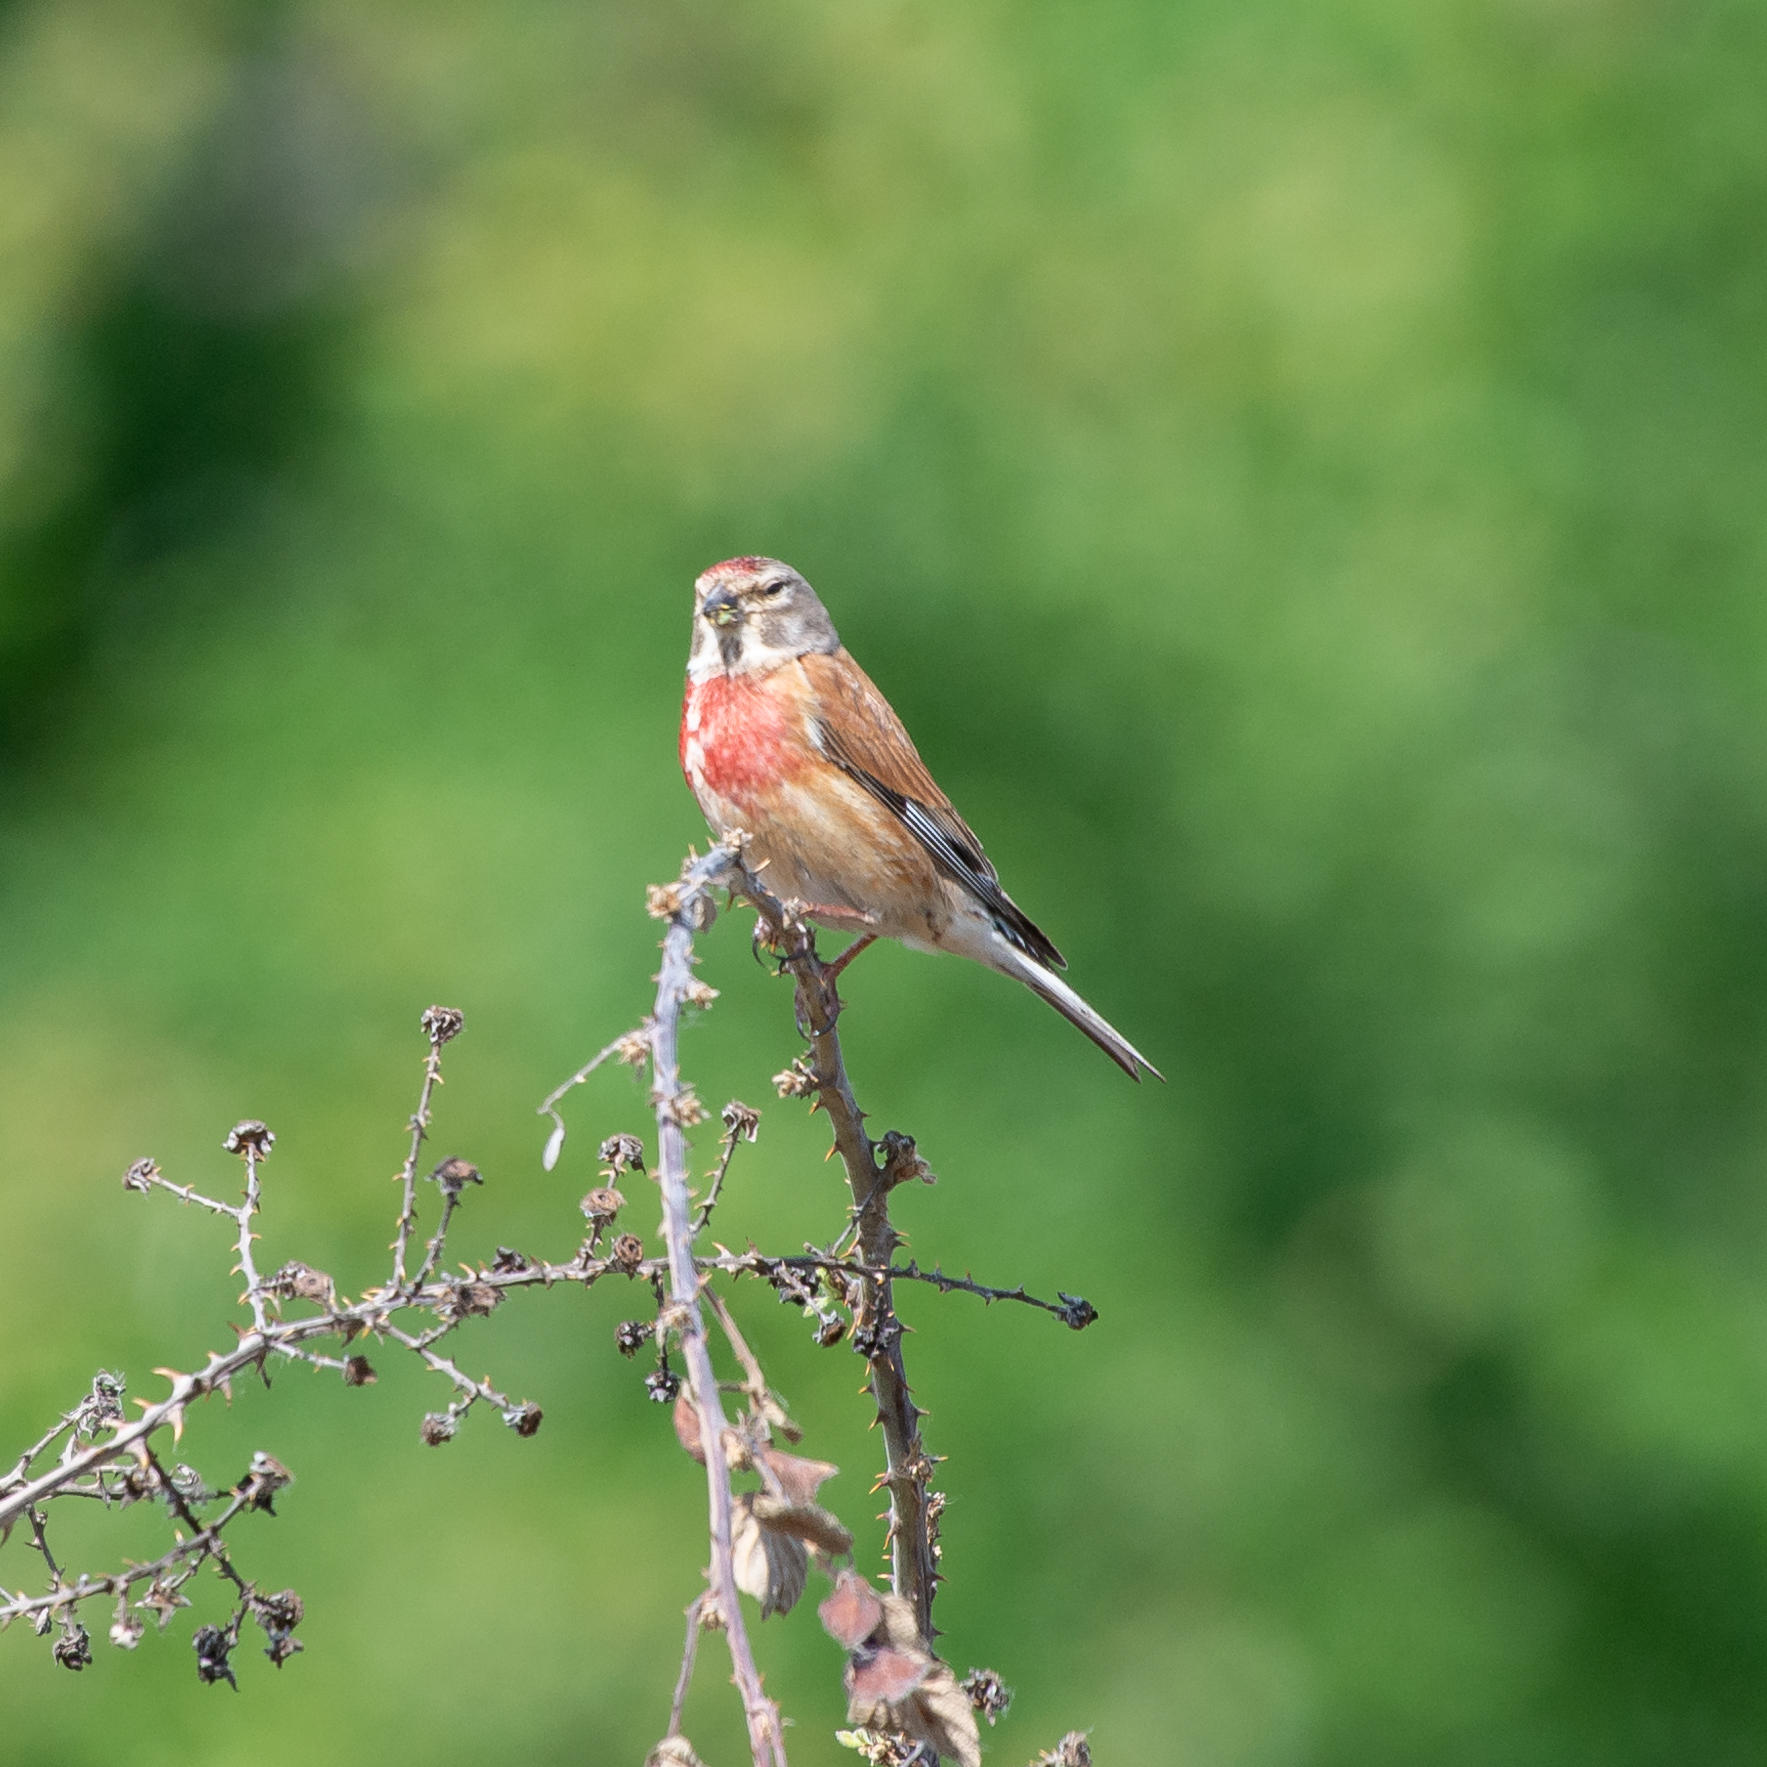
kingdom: Animalia
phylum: Chordata
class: Aves
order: Passeriformes
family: Fringillidae
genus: Linaria
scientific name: Linaria cannabina
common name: Common linnet
